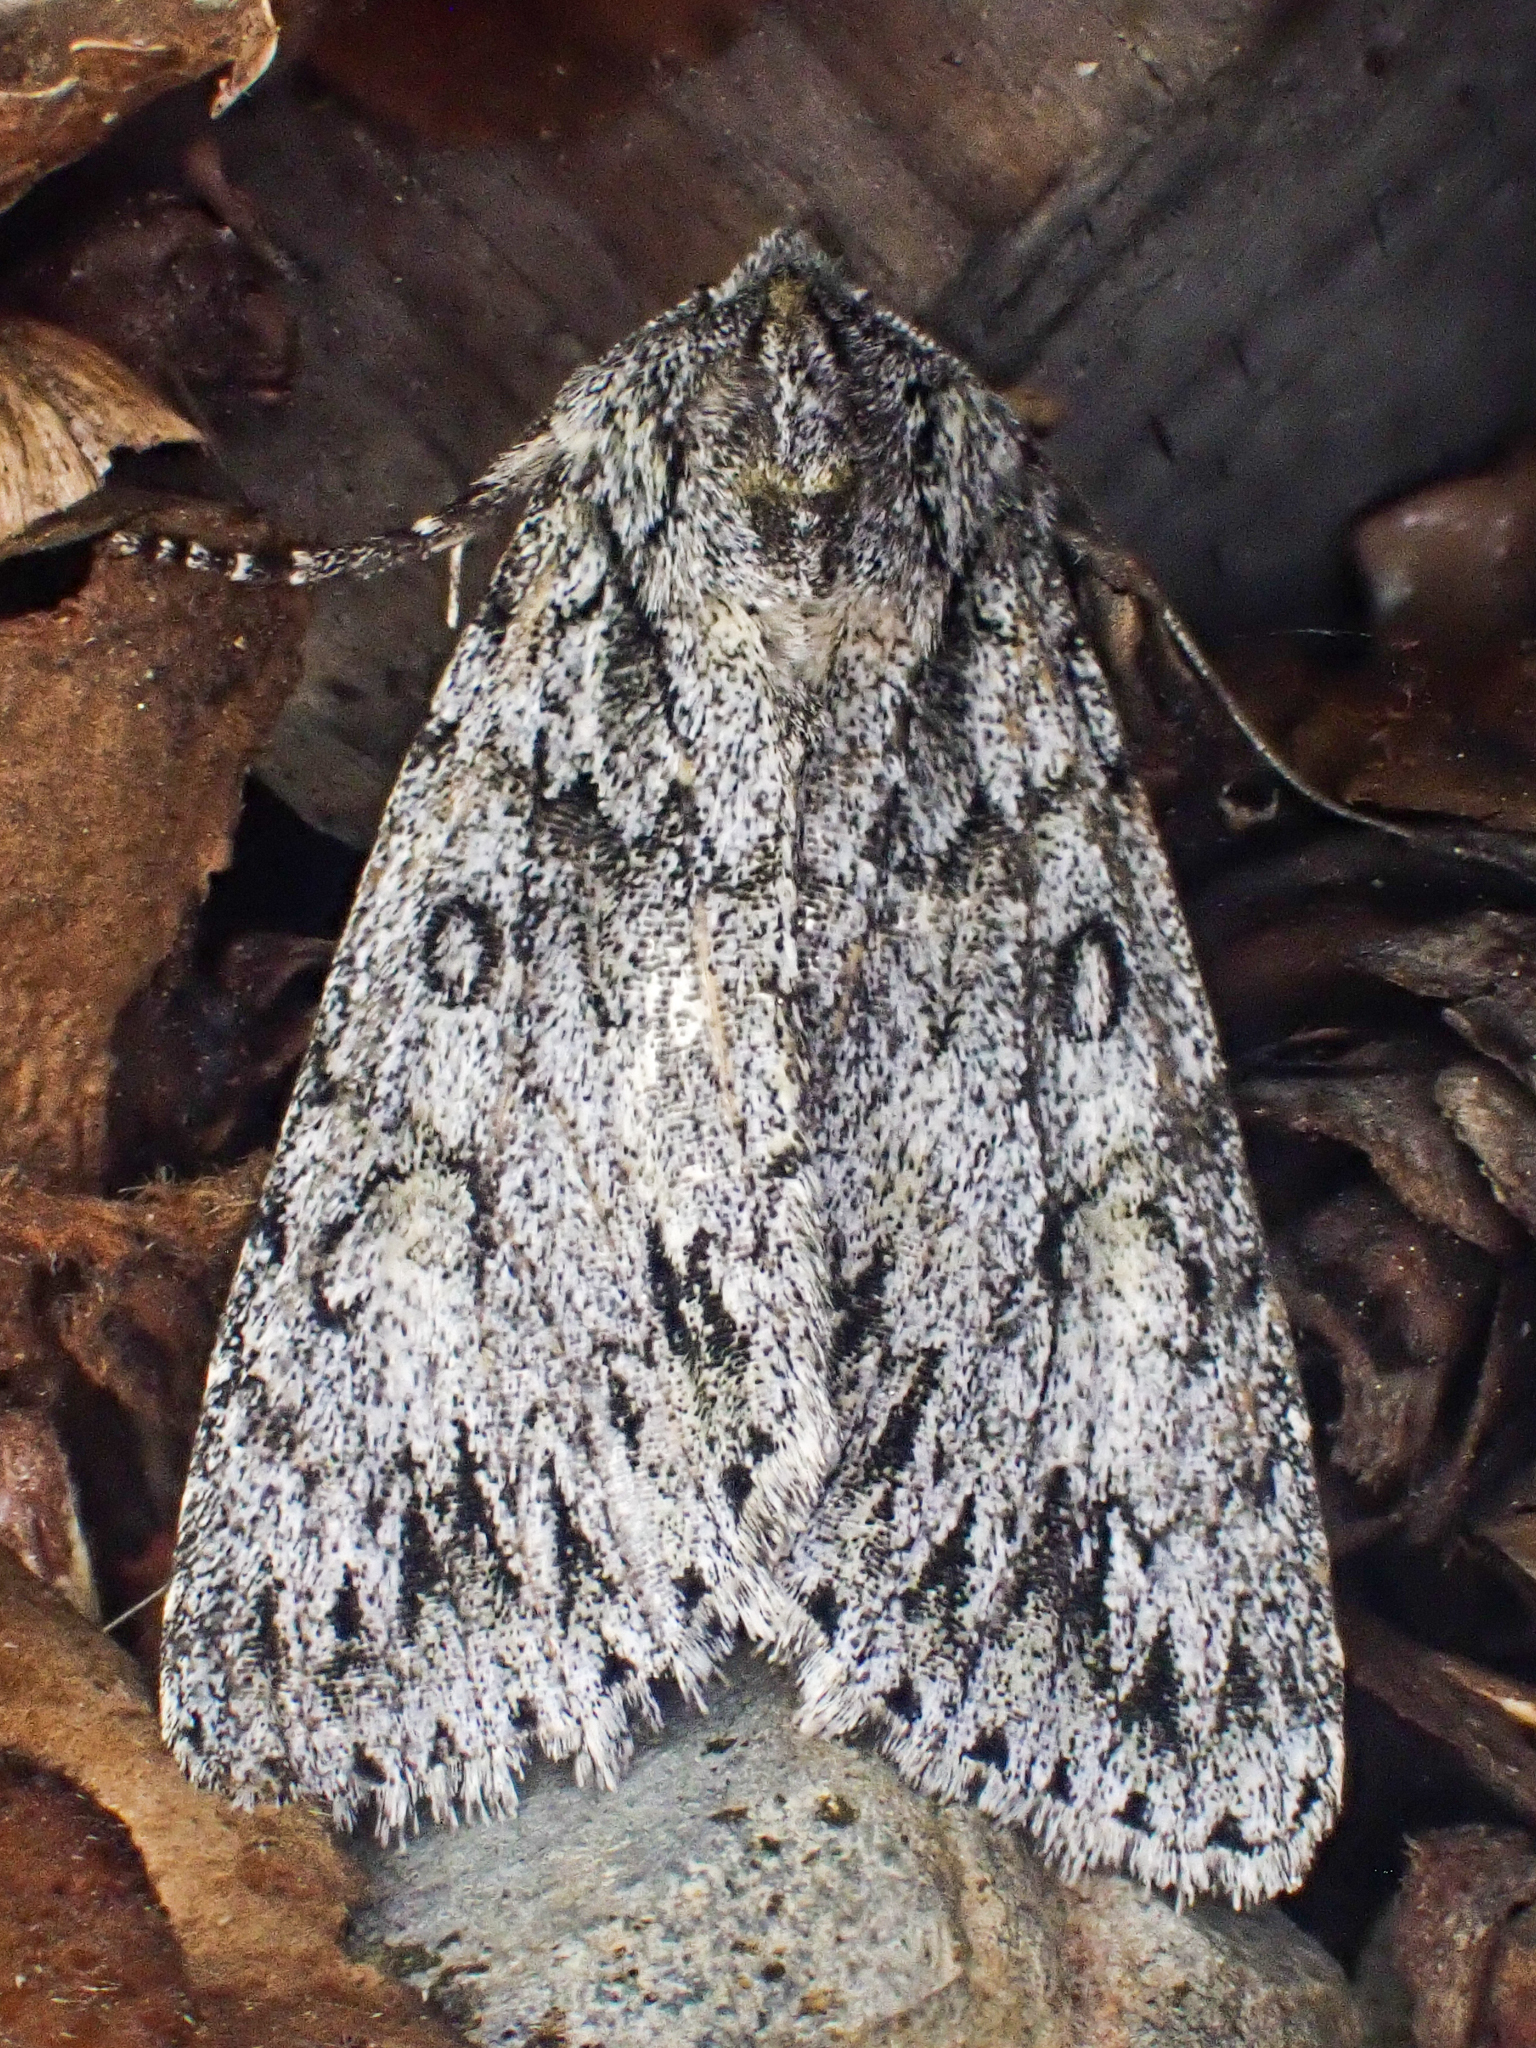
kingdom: Animalia
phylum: Arthropoda
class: Insecta
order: Lepidoptera
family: Noctuidae
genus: Andropolia
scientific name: Andropolia aedon
